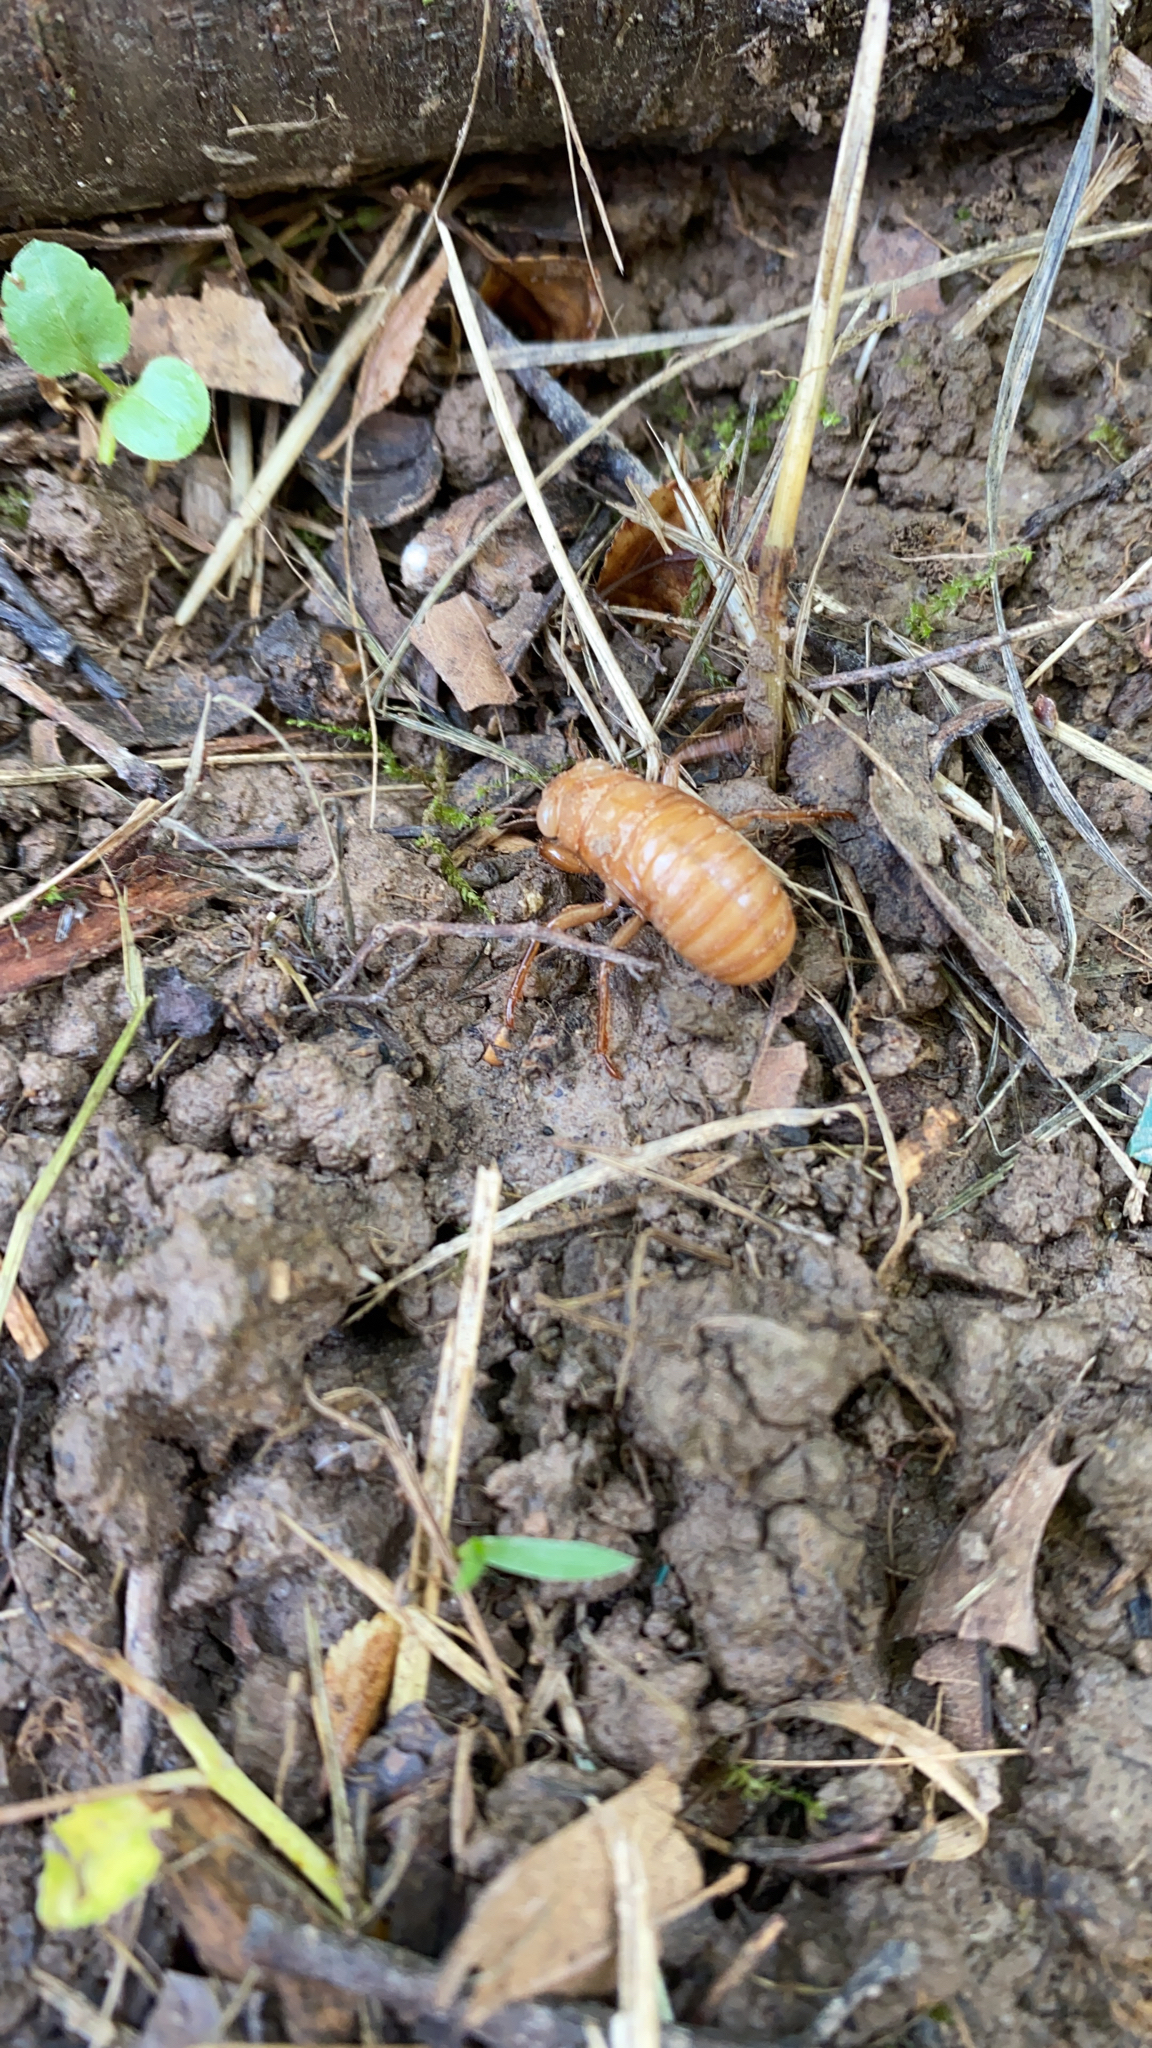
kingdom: Animalia
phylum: Arthropoda
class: Insecta
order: Hemiptera
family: Cicadidae
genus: Magicicada
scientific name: Magicicada
